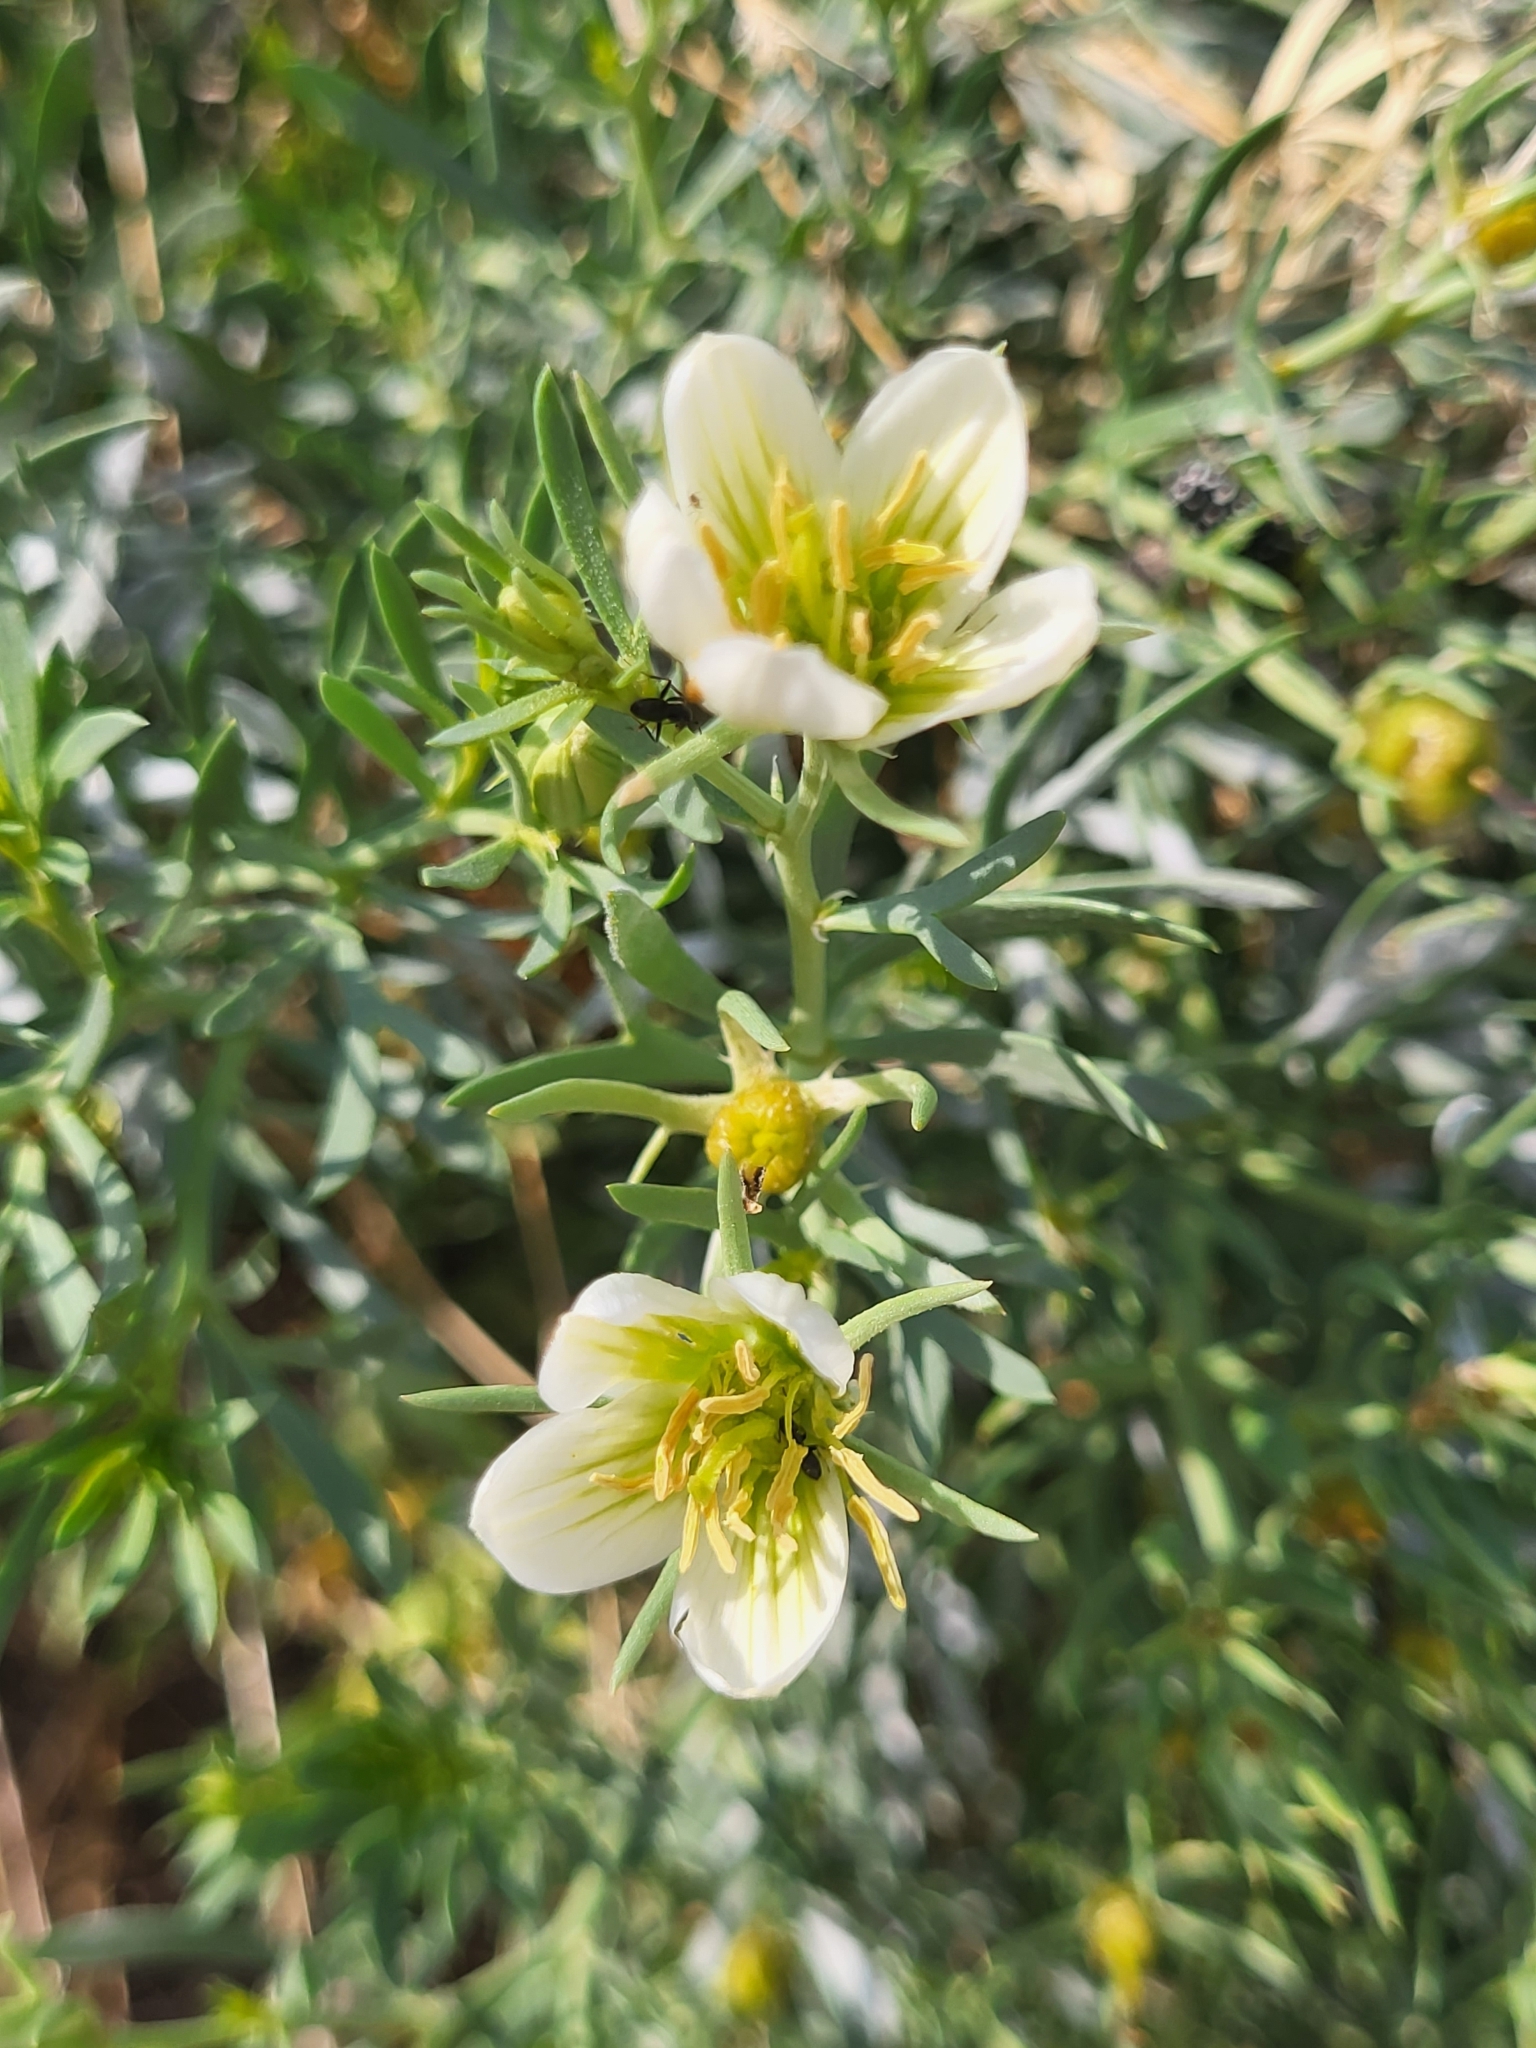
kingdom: Plantae
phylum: Tracheophyta
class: Magnoliopsida
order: Sapindales
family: Tetradiclidaceae
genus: Peganum
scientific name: Peganum harmala
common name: Harmal peganum
